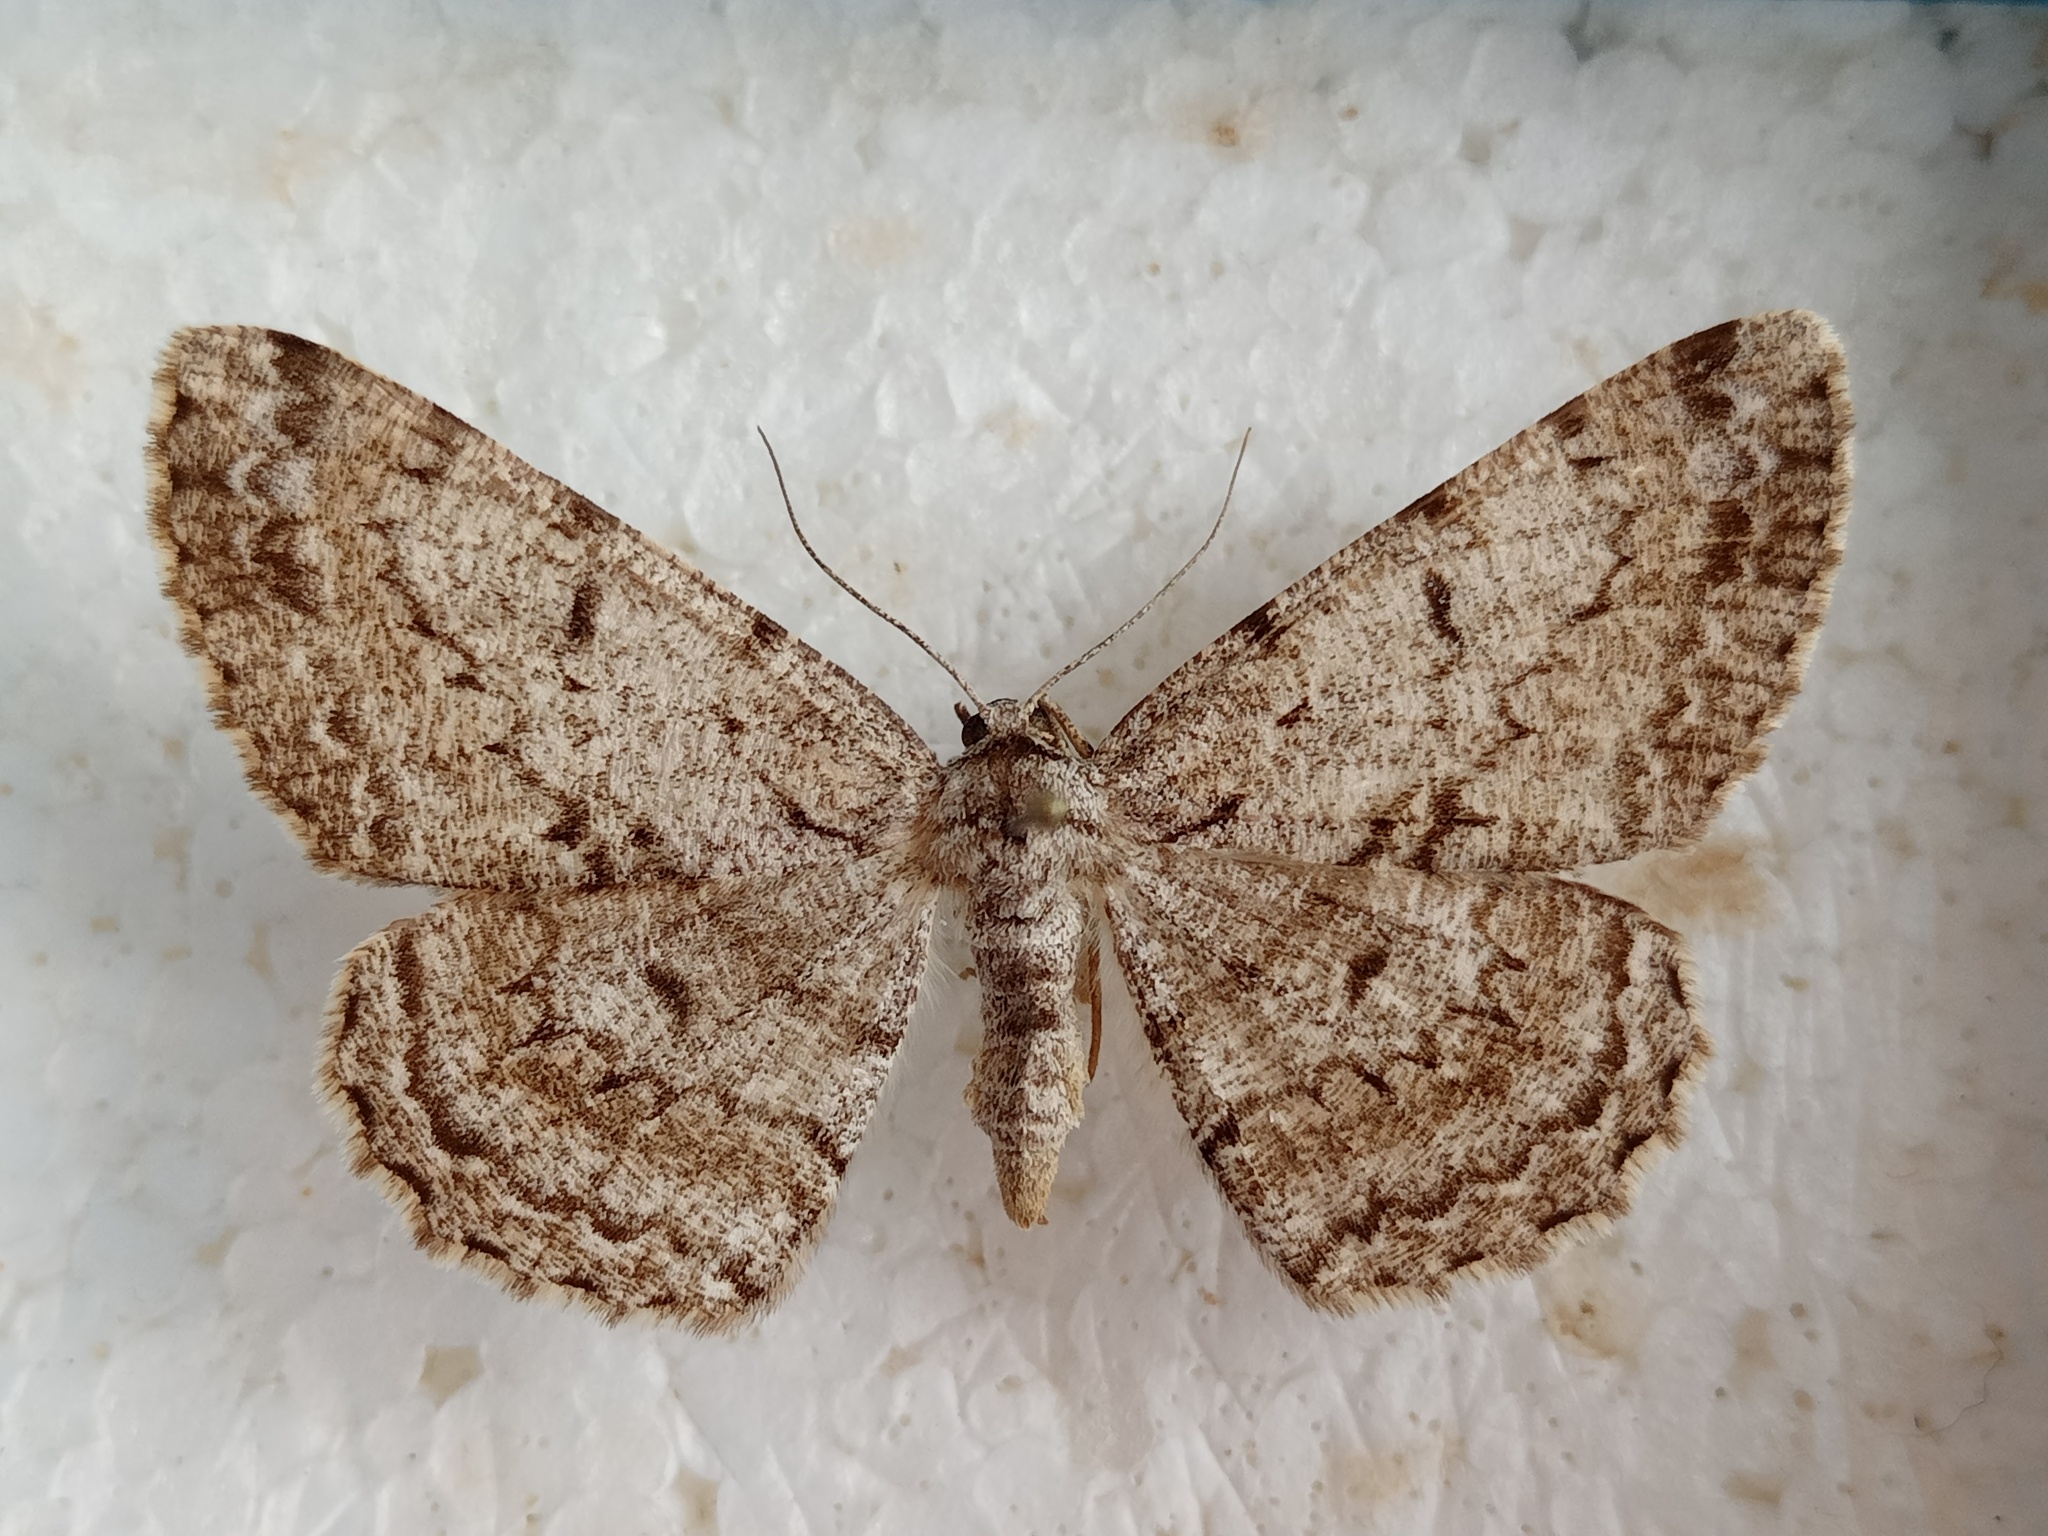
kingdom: Animalia
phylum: Arthropoda
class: Insecta
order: Lepidoptera
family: Geometridae
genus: Hypomecis
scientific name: Hypomecis roboraria
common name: Great oak beauty
